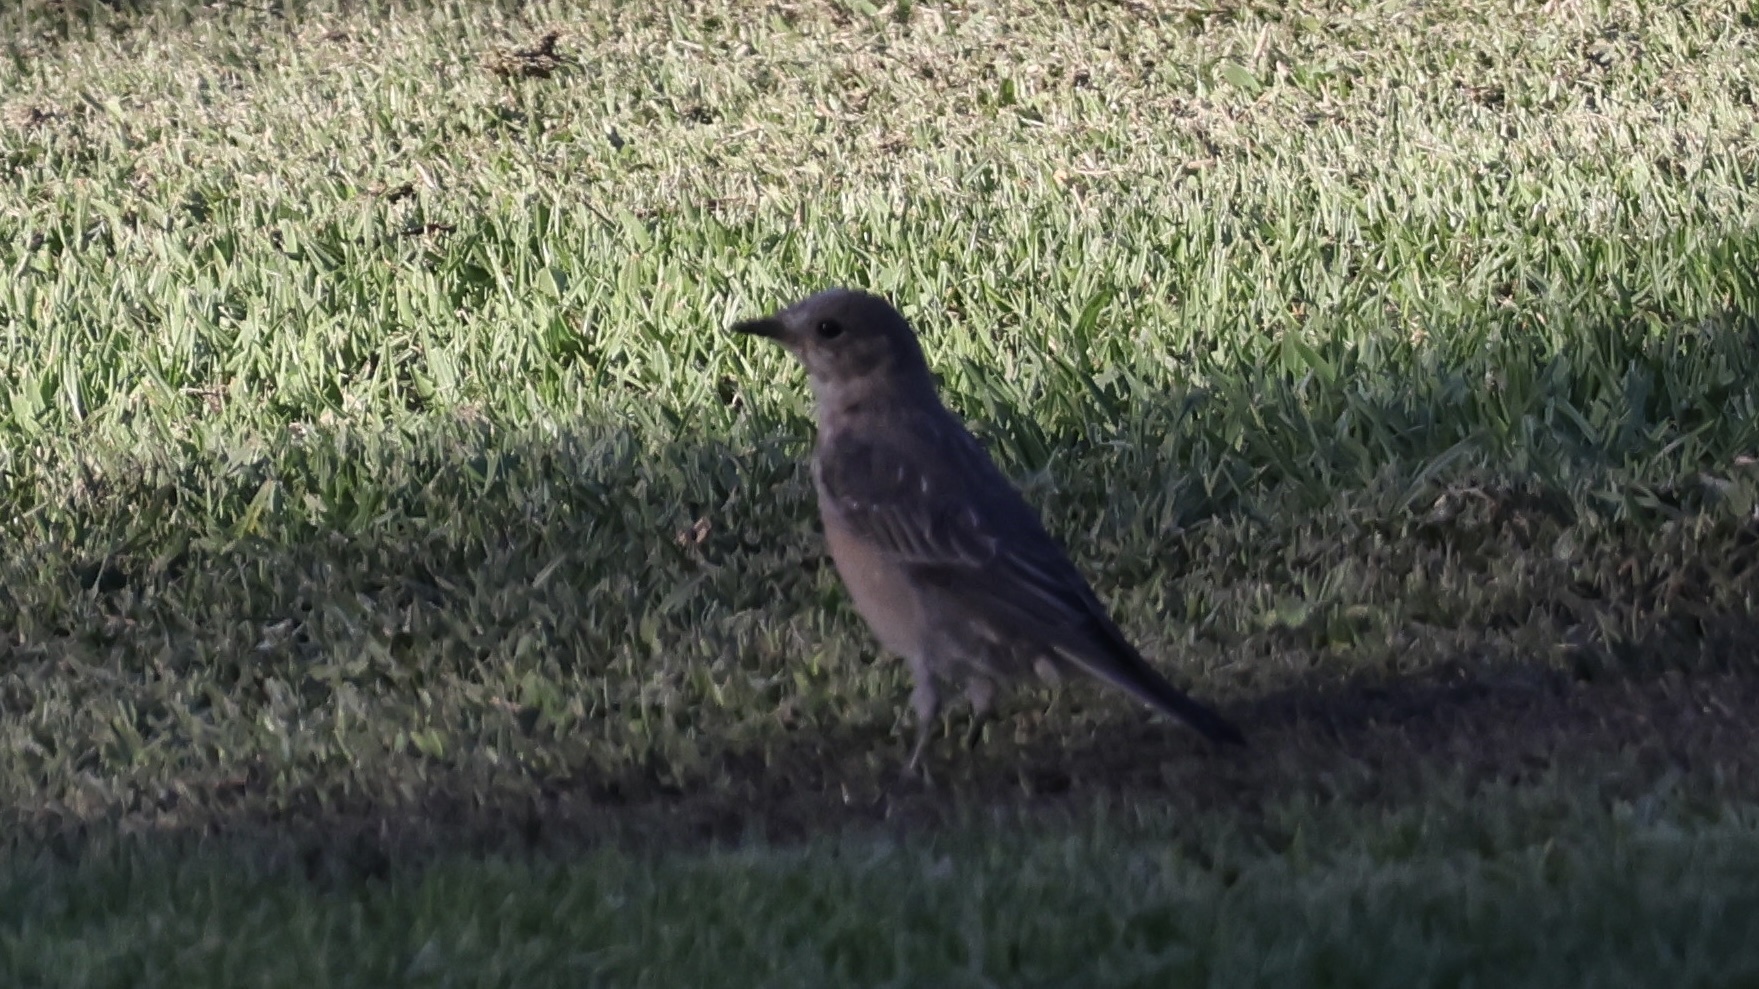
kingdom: Animalia
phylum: Chordata
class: Aves
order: Passeriformes
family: Turdidae
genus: Sialia
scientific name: Sialia mexicana
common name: Western bluebird
